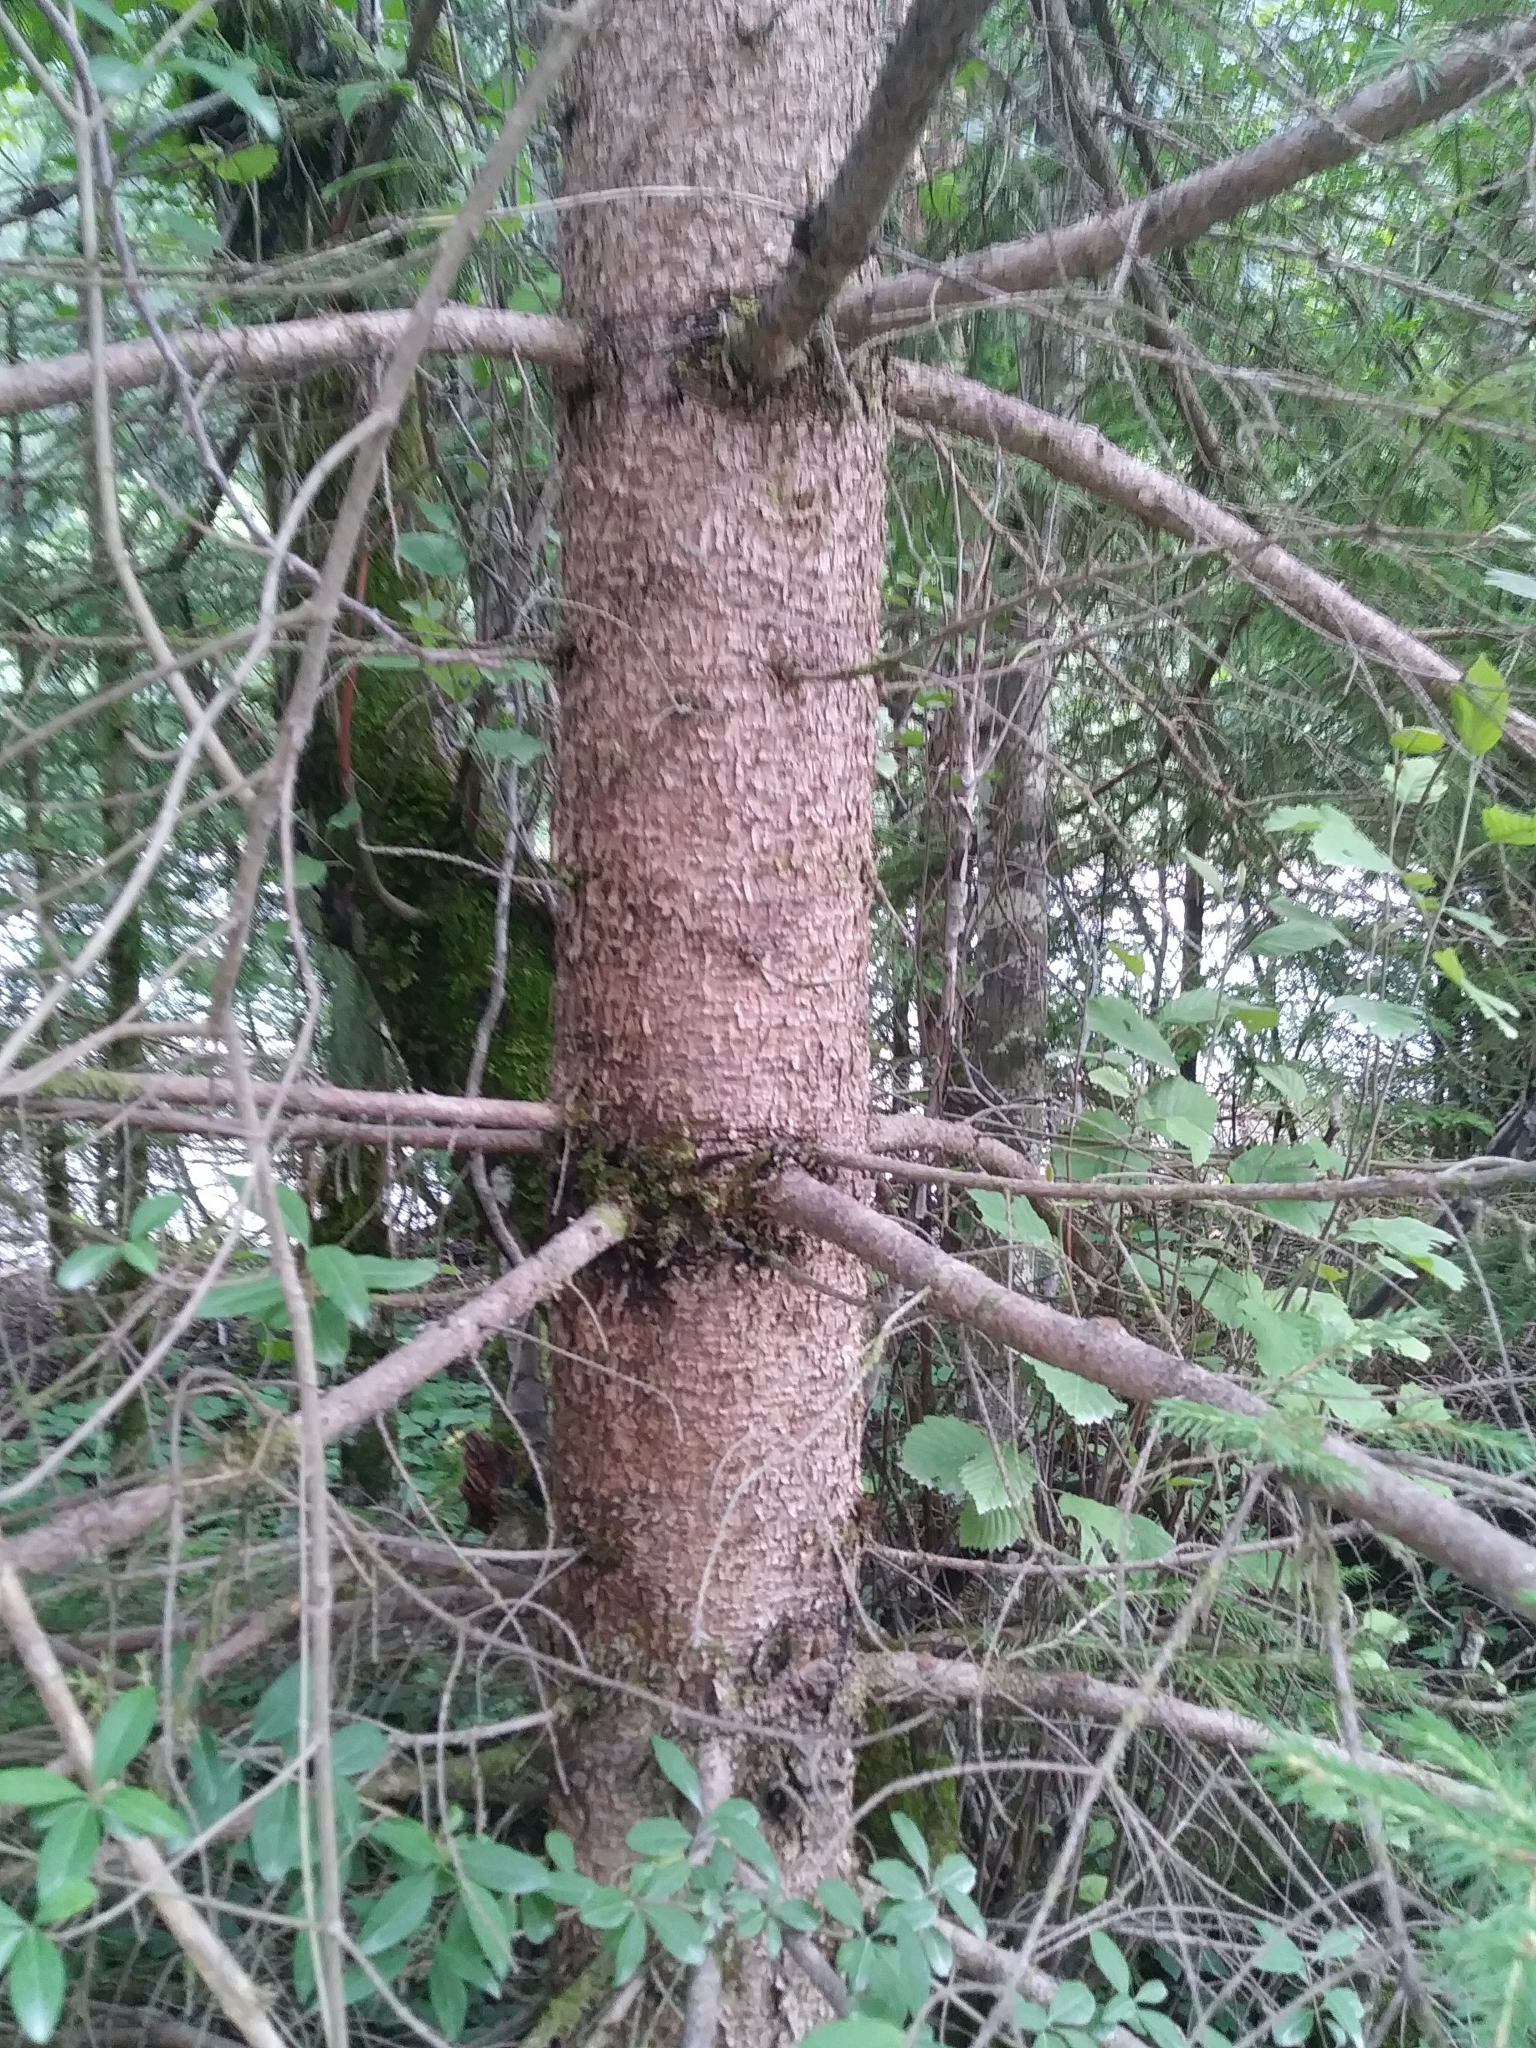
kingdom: Plantae
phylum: Tracheophyta
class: Pinopsida
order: Pinales
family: Pinaceae
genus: Picea
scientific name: Picea abies
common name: Norway spruce
